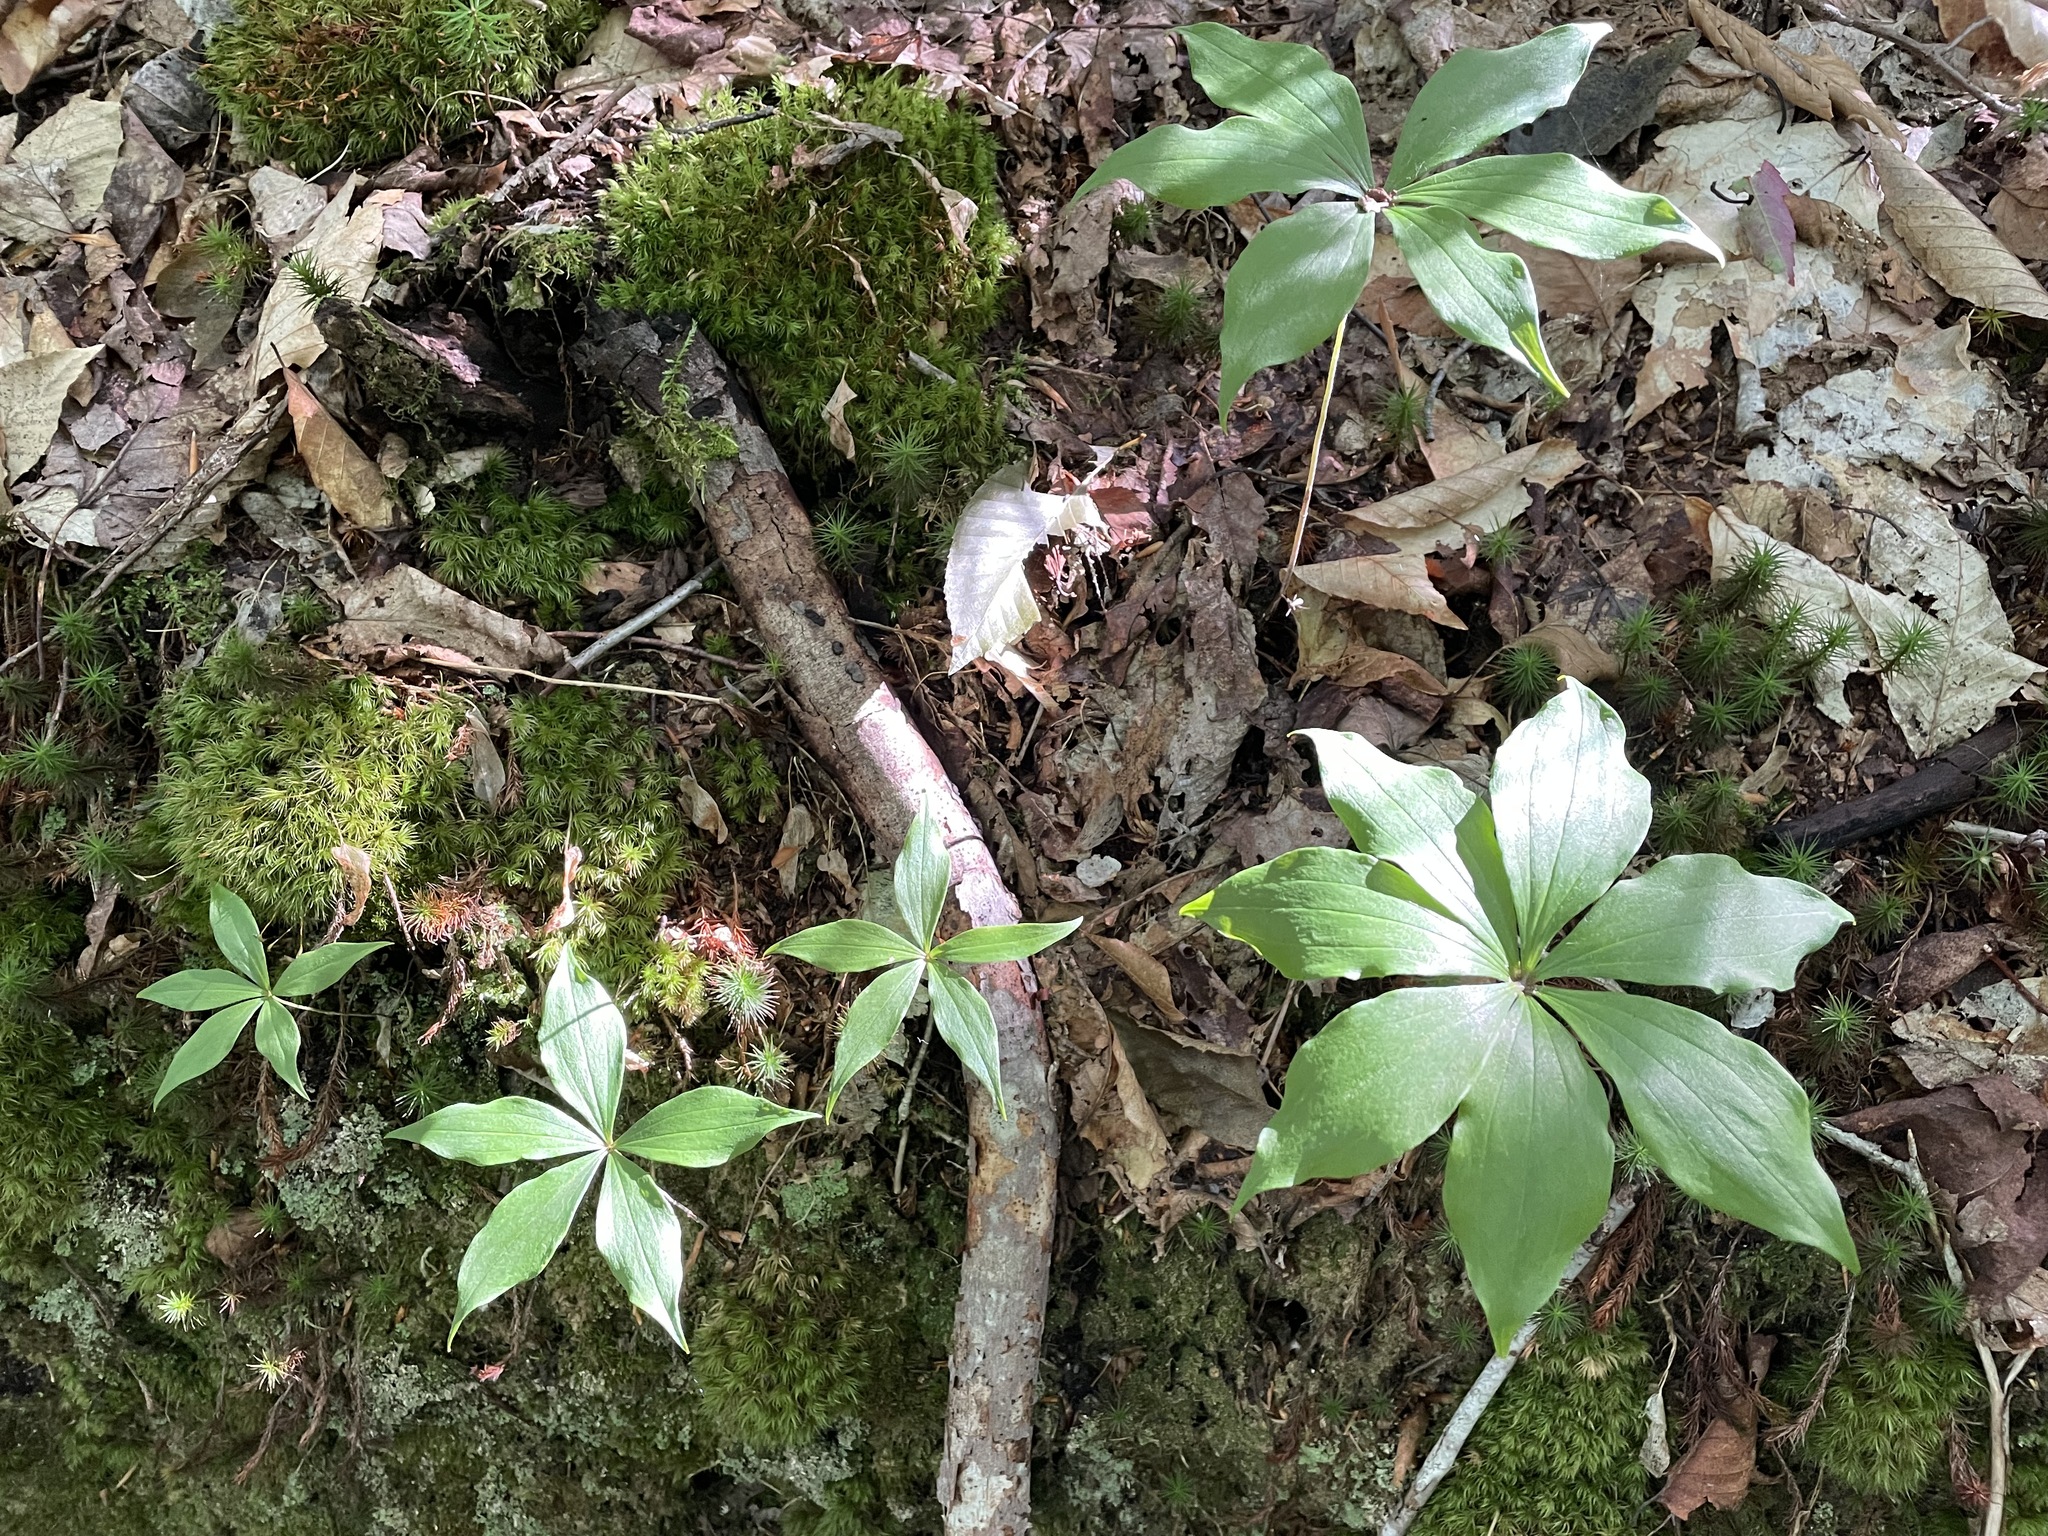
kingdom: Plantae
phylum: Tracheophyta
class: Liliopsida
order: Liliales
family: Liliaceae
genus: Medeola
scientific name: Medeola virginiana
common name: Indian cucumber-root
